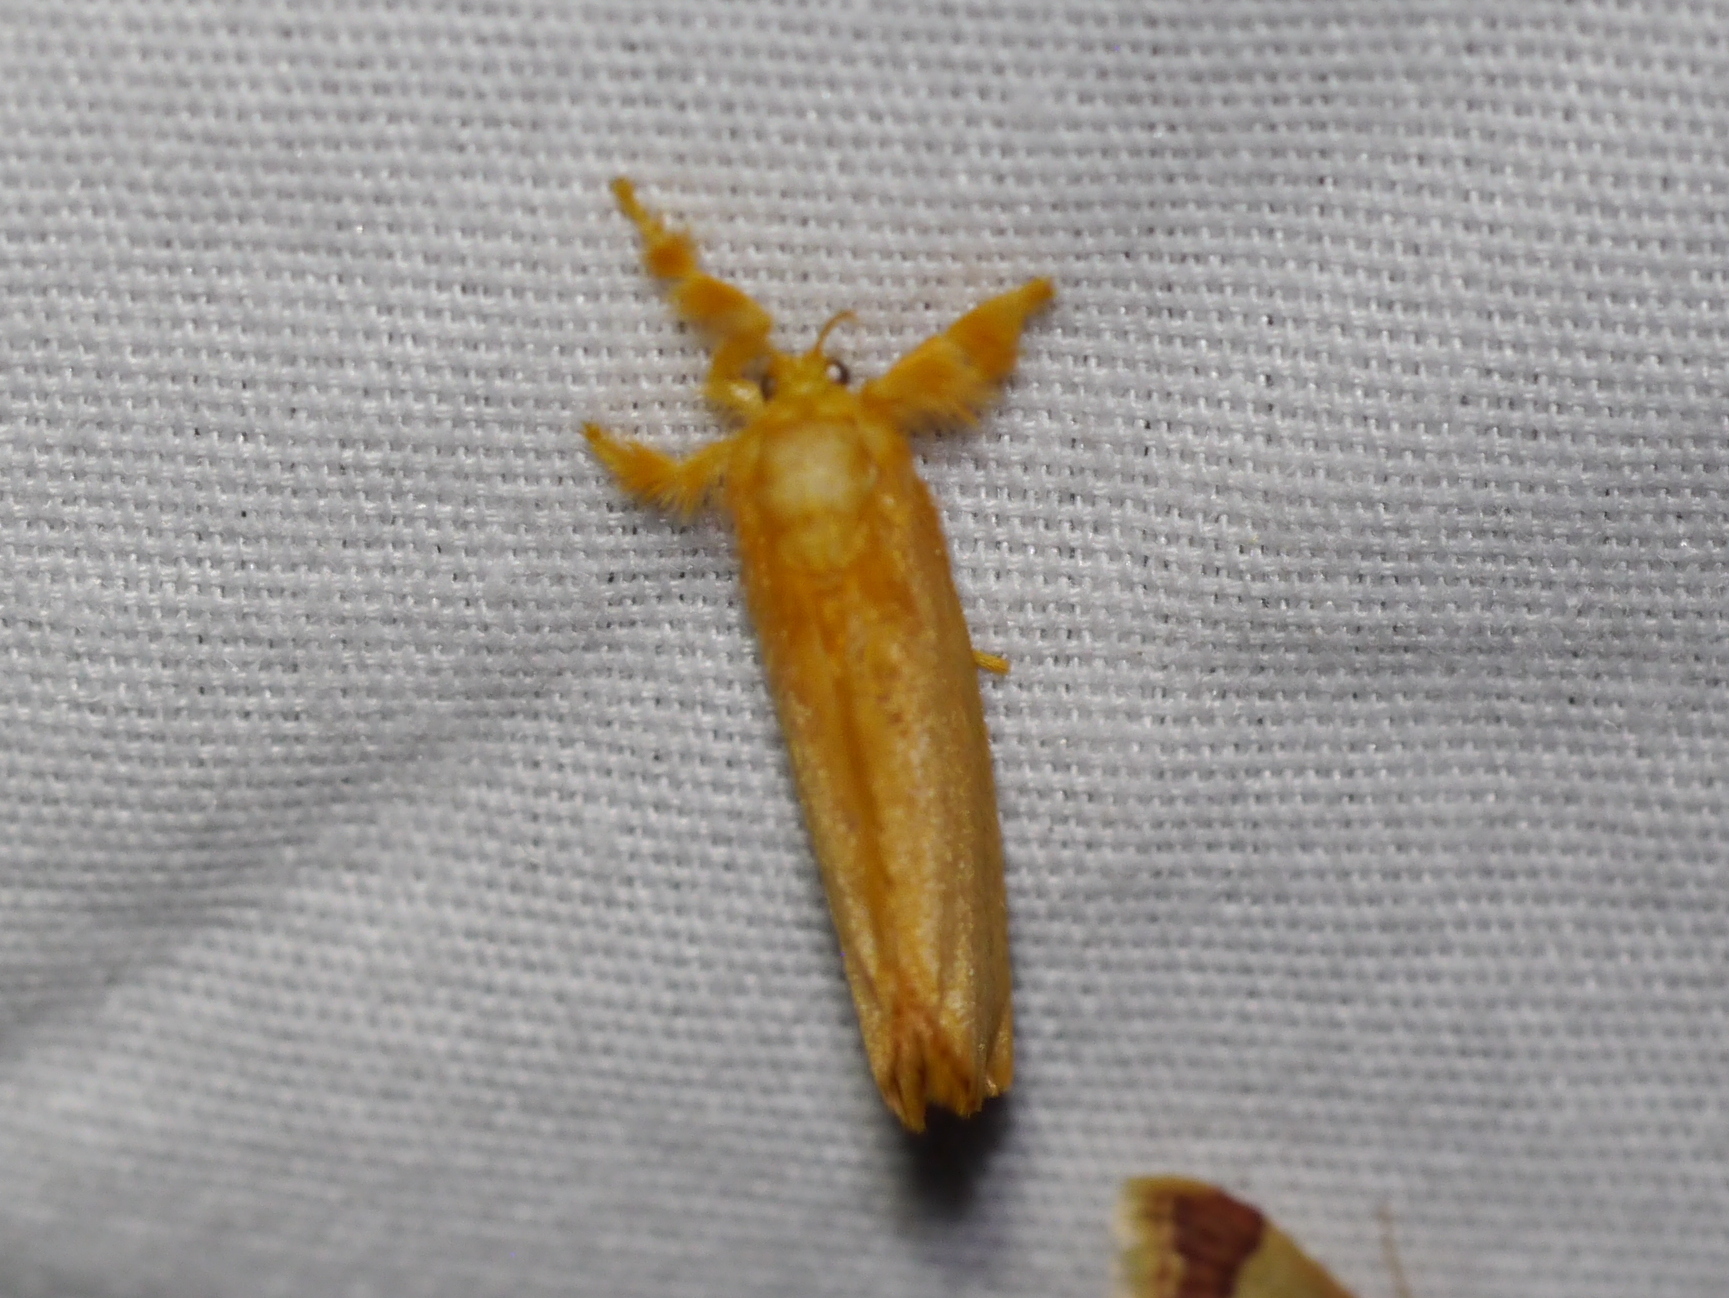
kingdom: Animalia
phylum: Arthropoda
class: Insecta
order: Lepidoptera
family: Dalceridae
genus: Dalcerides
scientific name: Dalcerides ingenita
